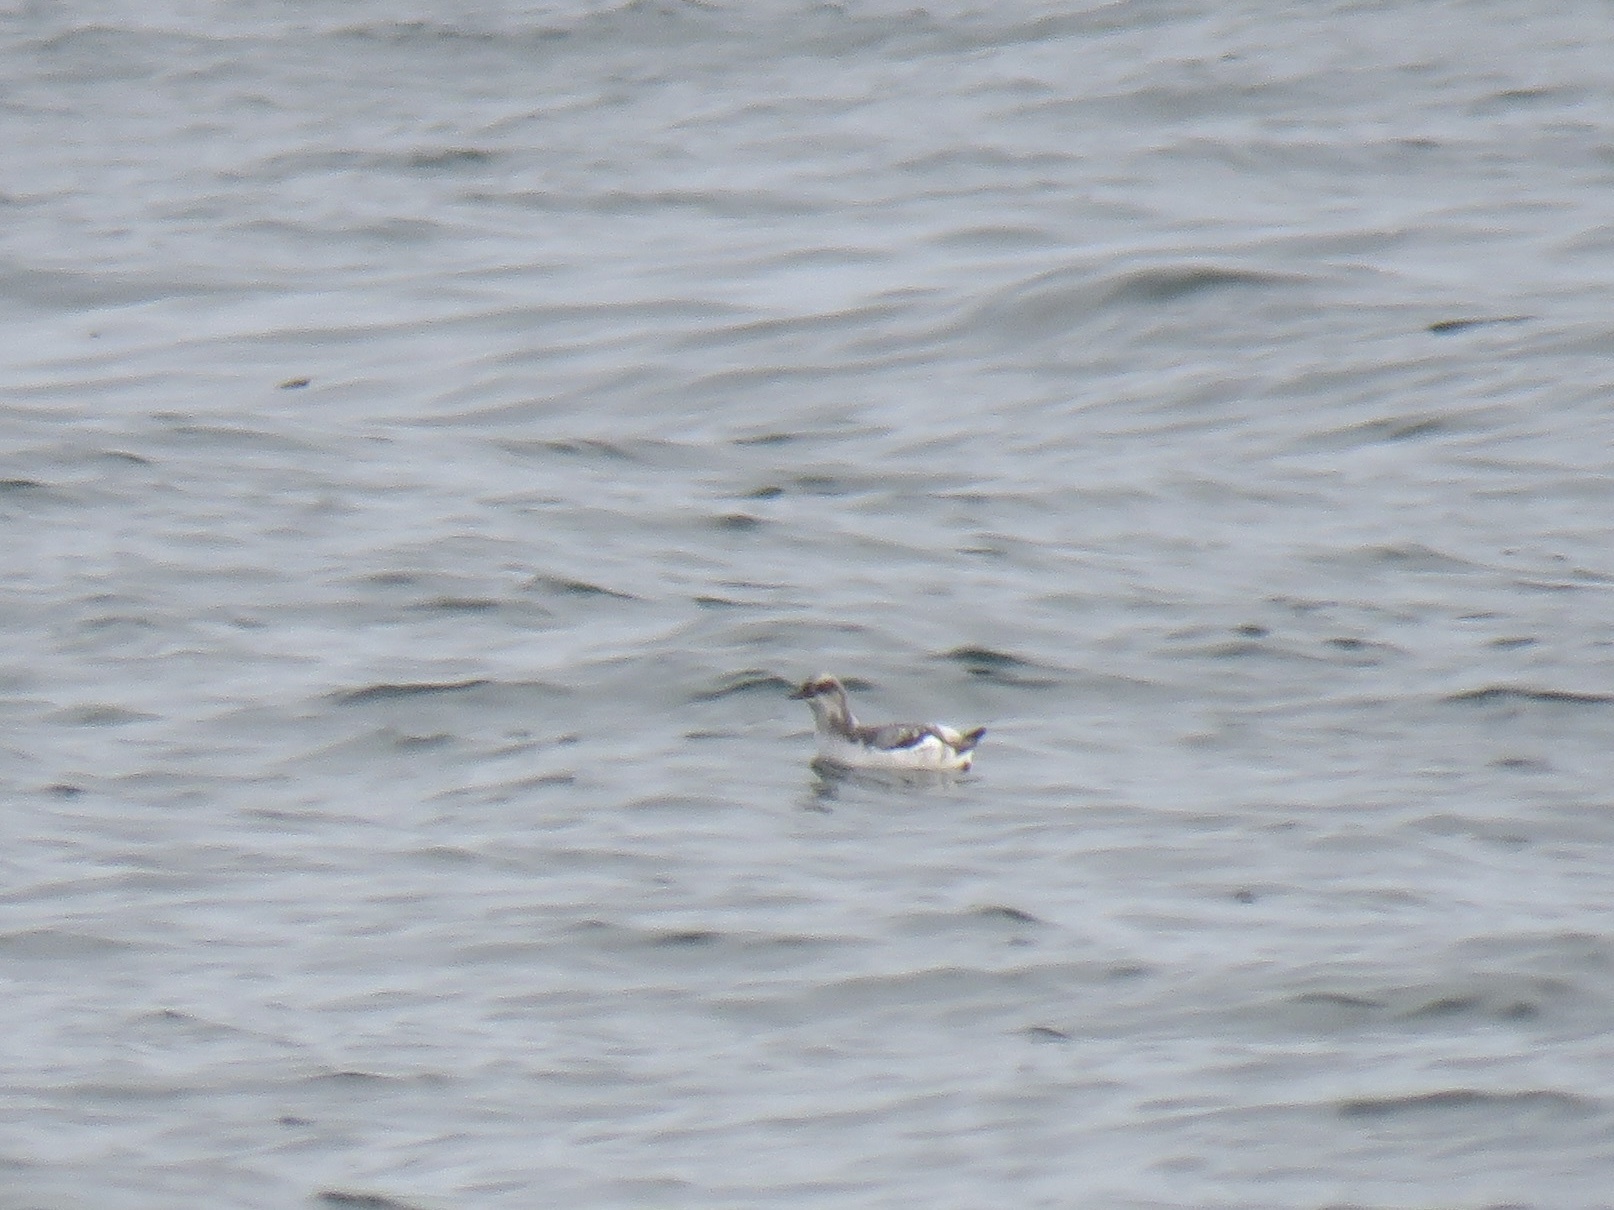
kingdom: Animalia
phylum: Chordata
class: Aves
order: Charadriiformes
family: Alcidae
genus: Cepphus
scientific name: Cepphus columba
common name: Pigeon guillemot
